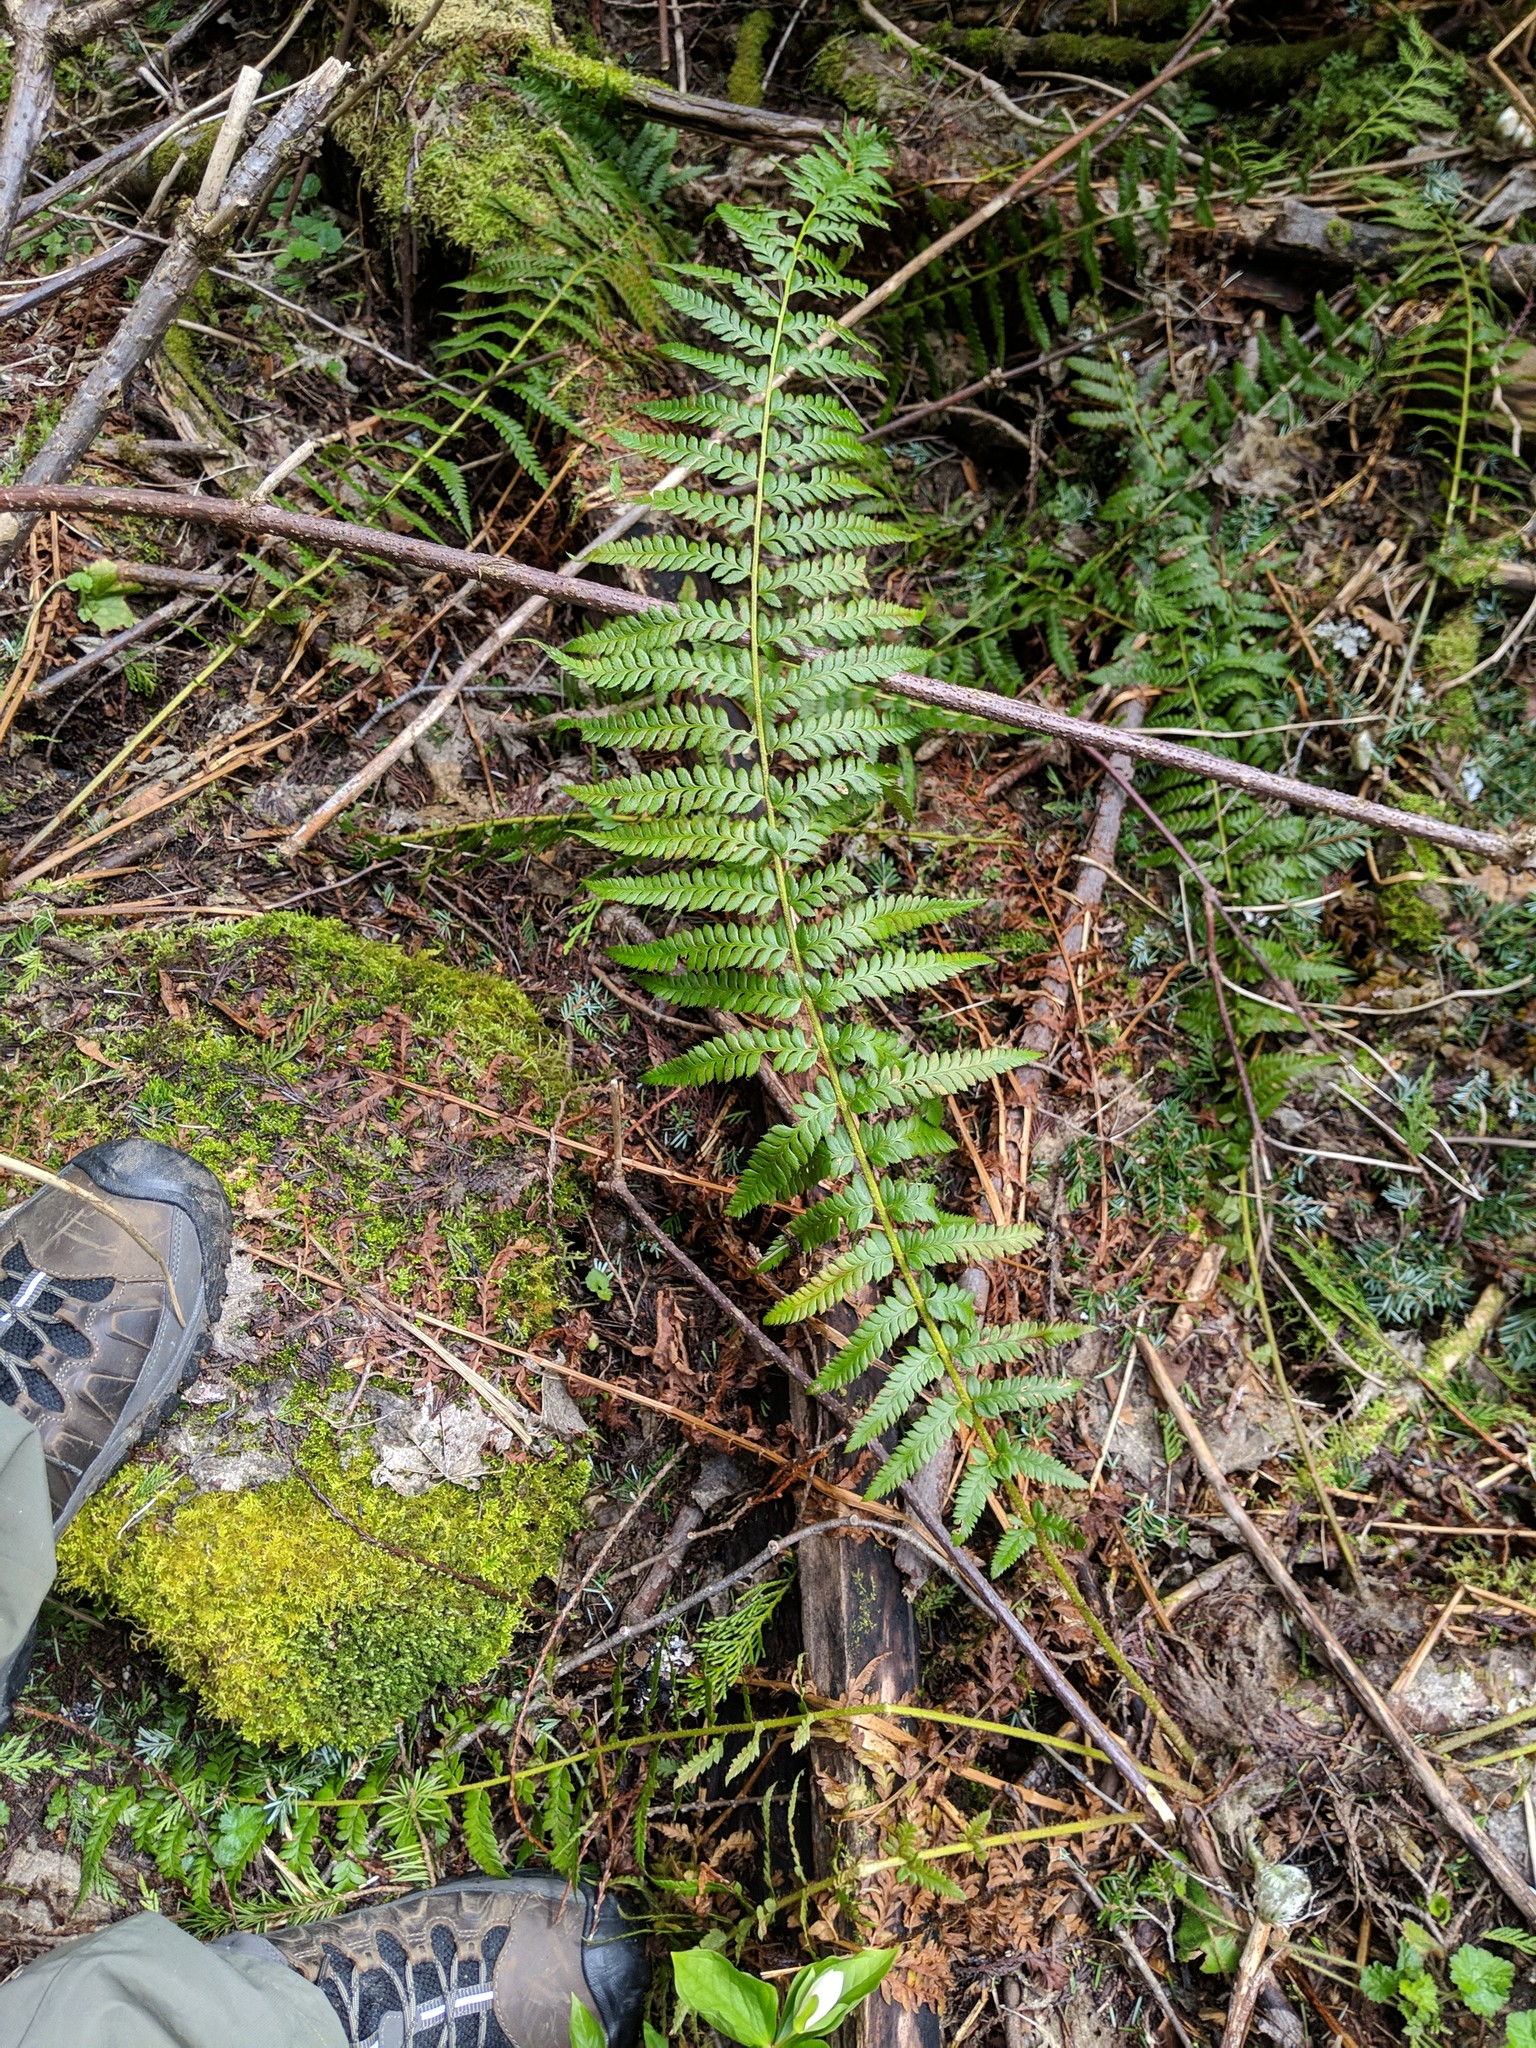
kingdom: Plantae
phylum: Tracheophyta
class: Polypodiopsida
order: Polypodiales
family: Dryopteridaceae
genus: Polystichum
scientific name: Polystichum andersonii
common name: Anderson's holly fern
